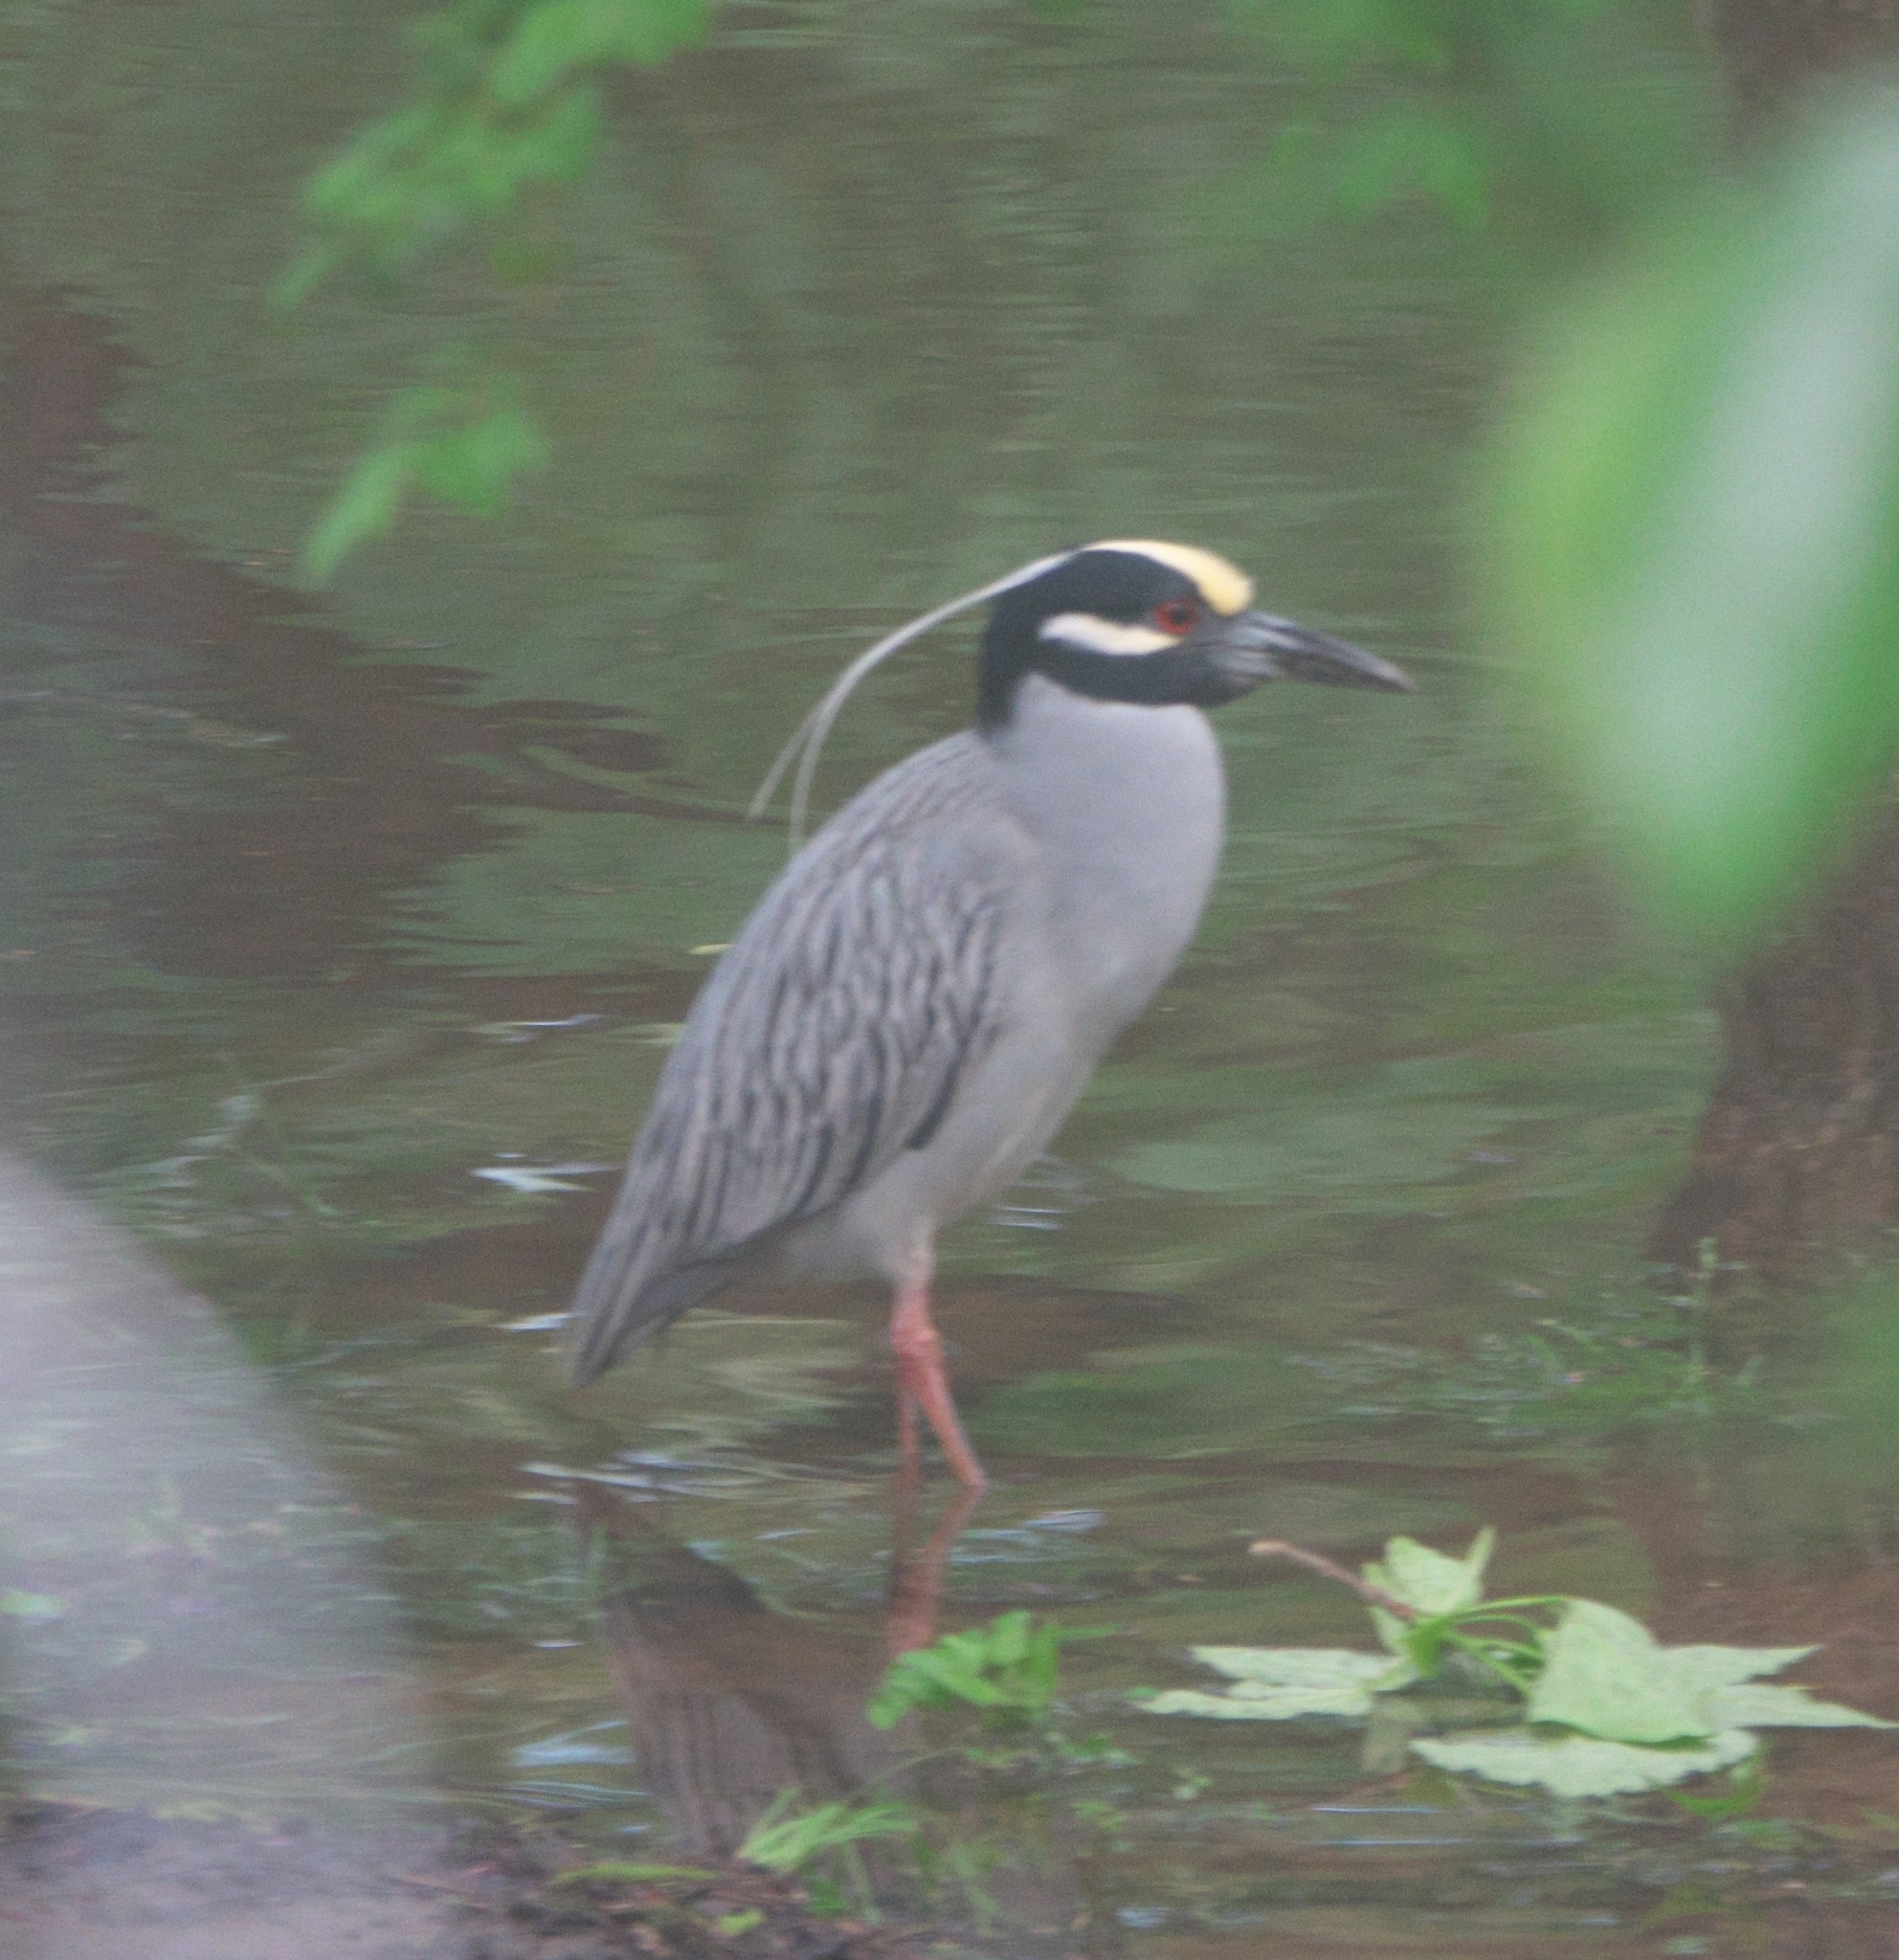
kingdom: Animalia
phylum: Chordata
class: Aves
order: Pelecaniformes
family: Ardeidae
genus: Nyctanassa
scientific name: Nyctanassa violacea
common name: Yellow-crowned night heron
